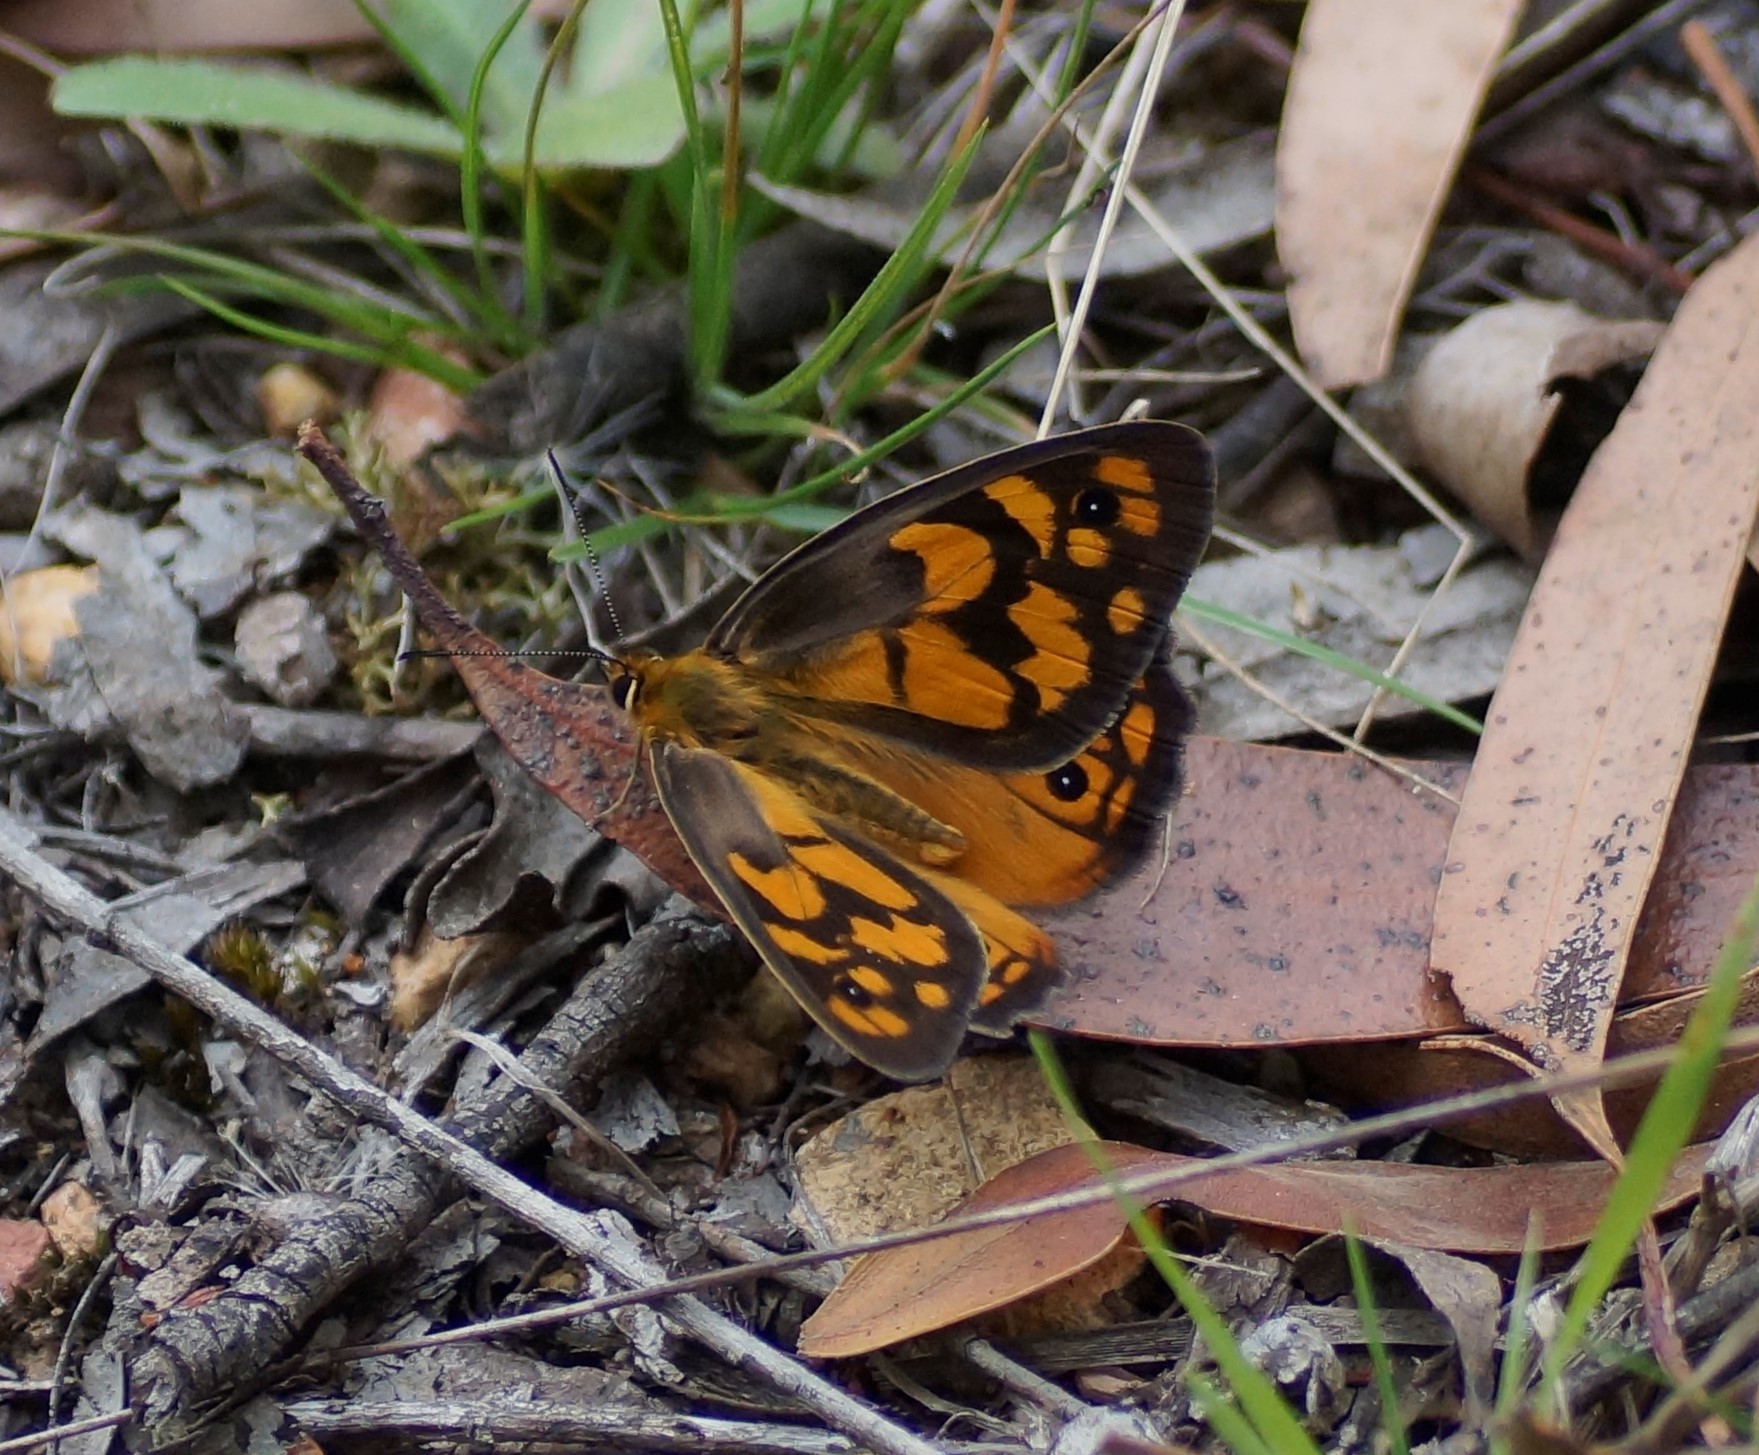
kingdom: Animalia
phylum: Arthropoda
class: Insecta
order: Lepidoptera
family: Nymphalidae
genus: Heteronympha
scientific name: Heteronympha penelope
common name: Shouldered brown
